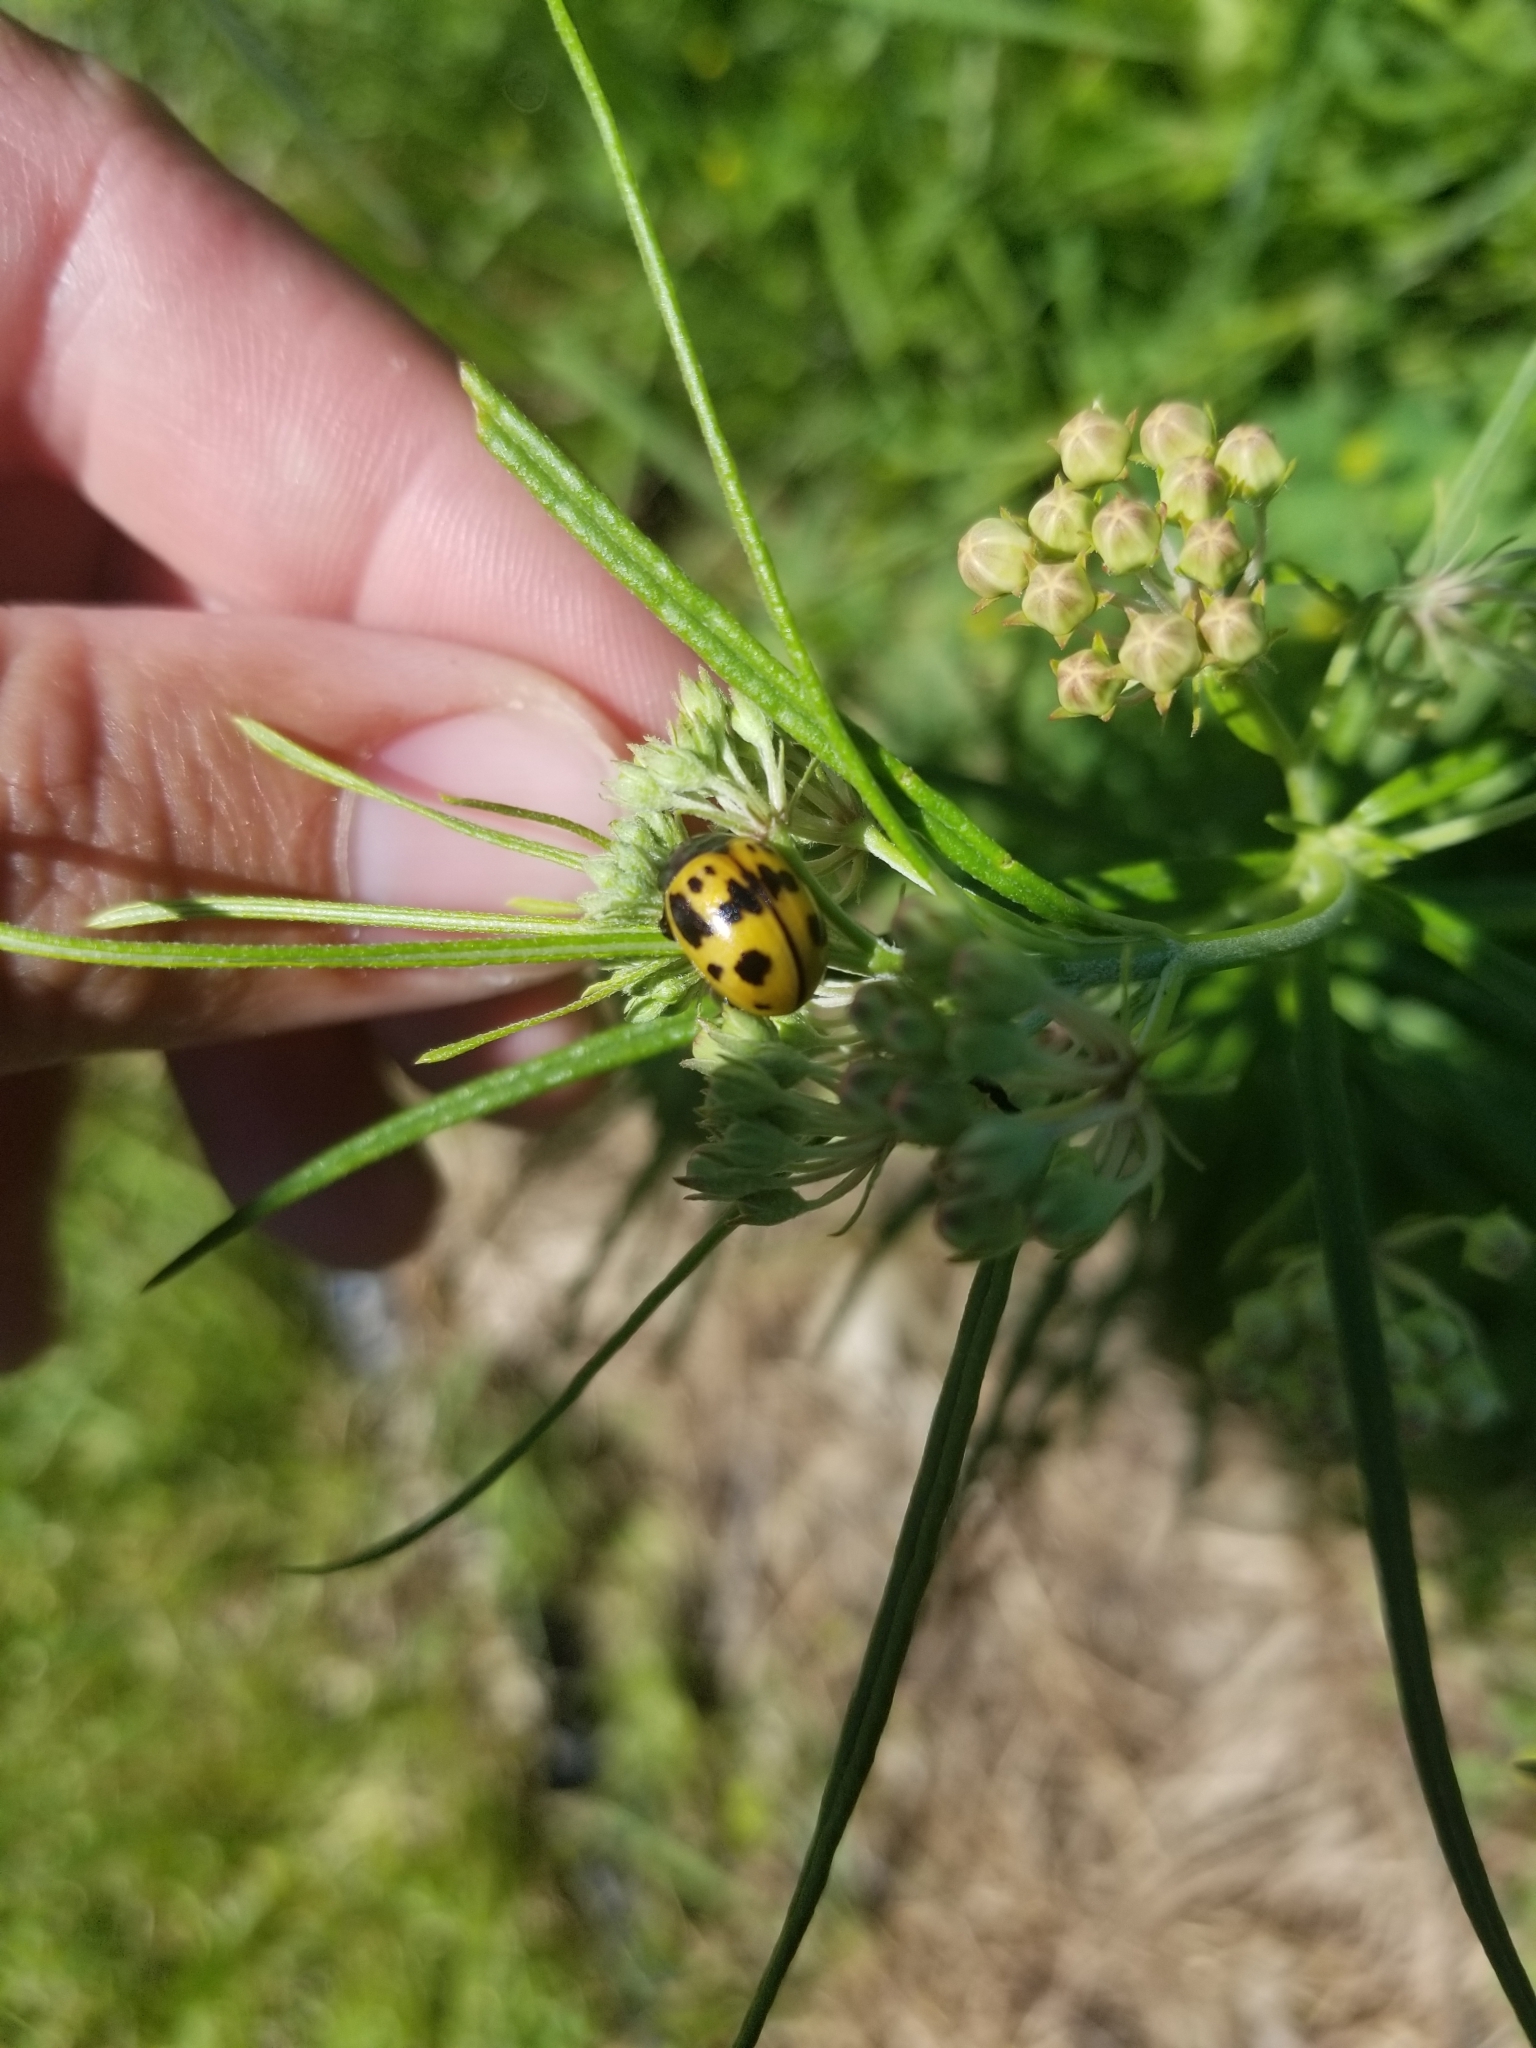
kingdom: Animalia
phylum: Arthropoda
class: Insecta
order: Coleoptera
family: Chrysomelidae
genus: Labidomera
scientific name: Labidomera clivicollis
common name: Swamp milkweed leaf beetle
